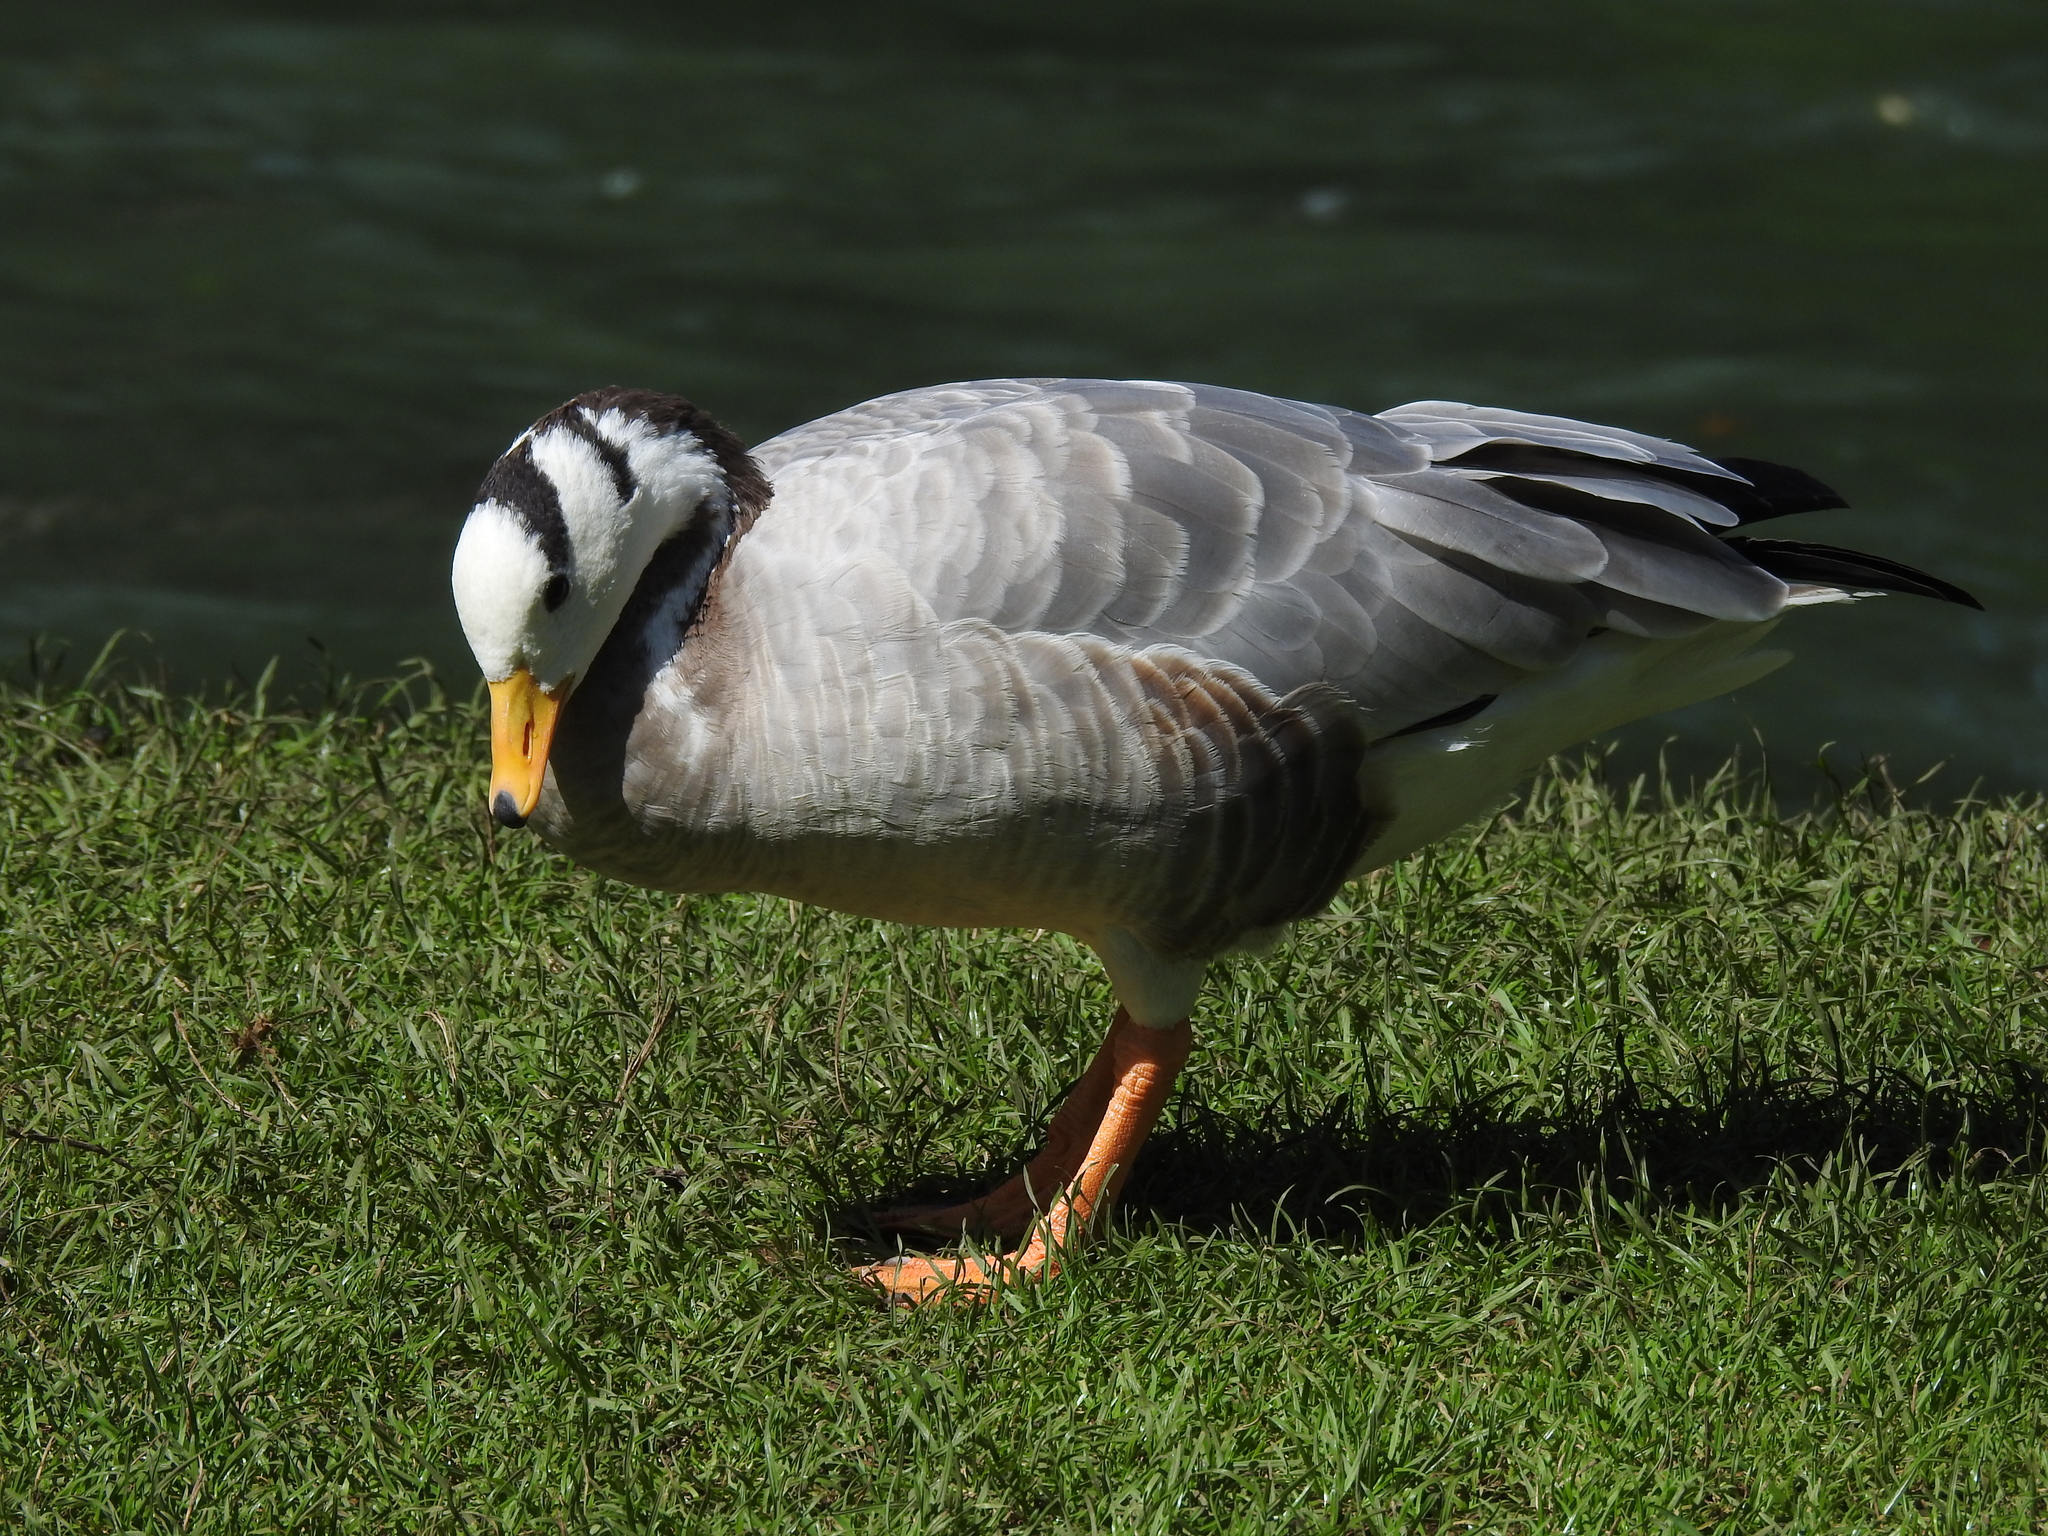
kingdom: Animalia
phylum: Chordata
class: Aves
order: Anseriformes
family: Anatidae
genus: Anser
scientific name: Anser indicus
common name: Bar-headed goose
